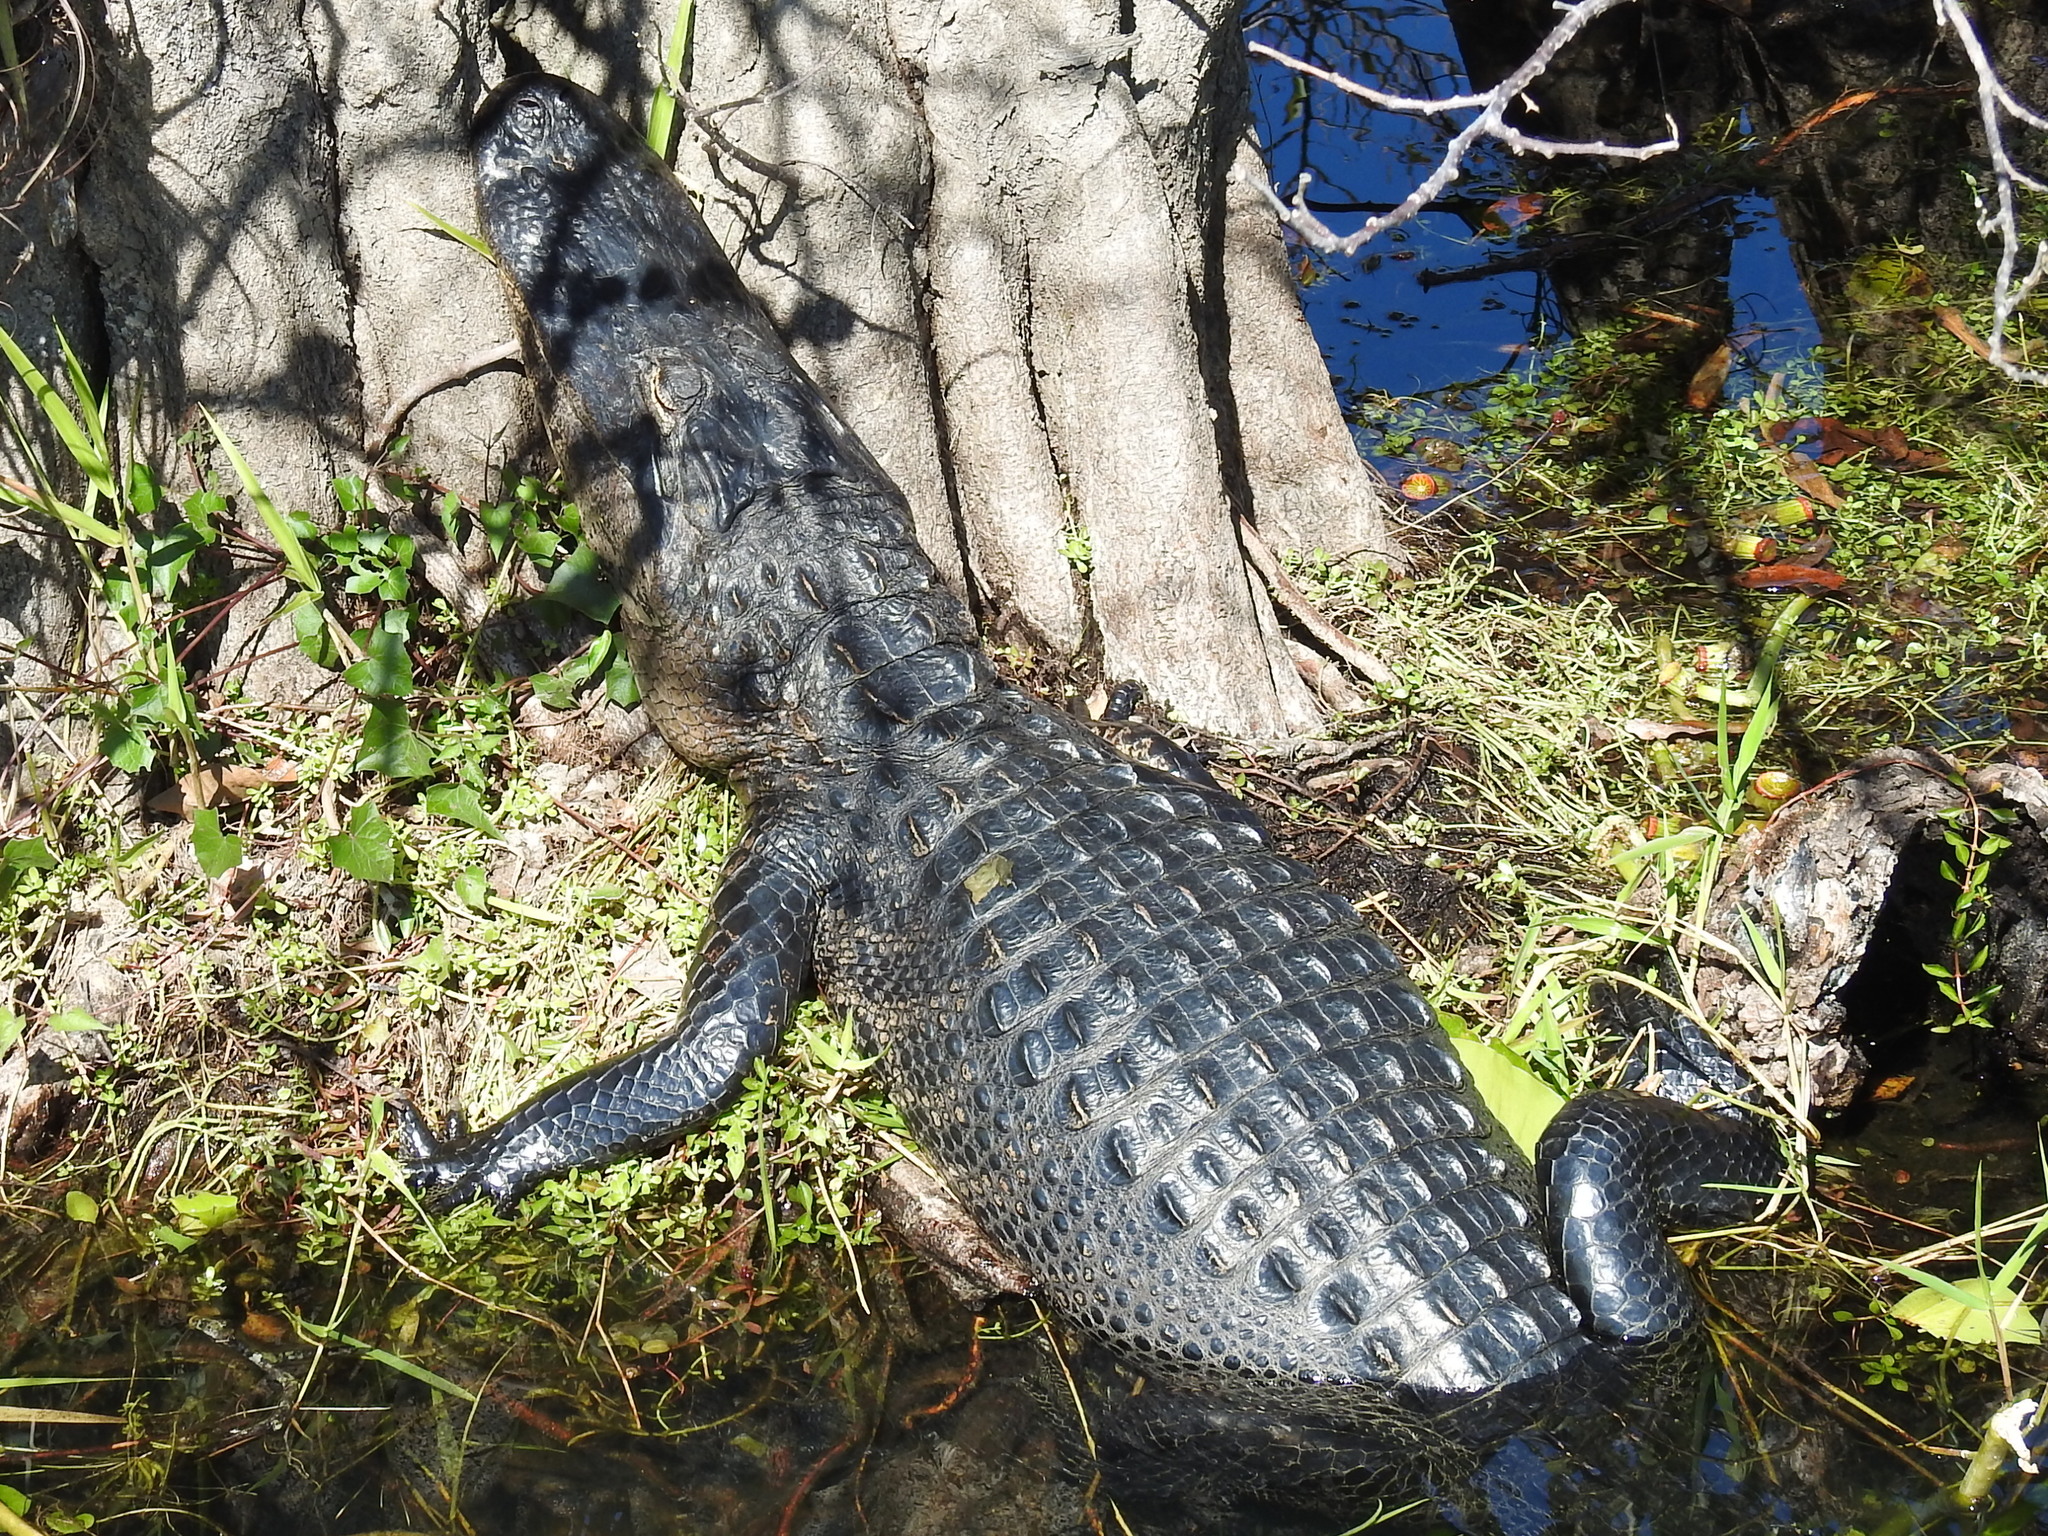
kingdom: Animalia
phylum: Chordata
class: Crocodylia
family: Alligatoridae
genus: Alligator
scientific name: Alligator mississippiensis
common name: American alligator
